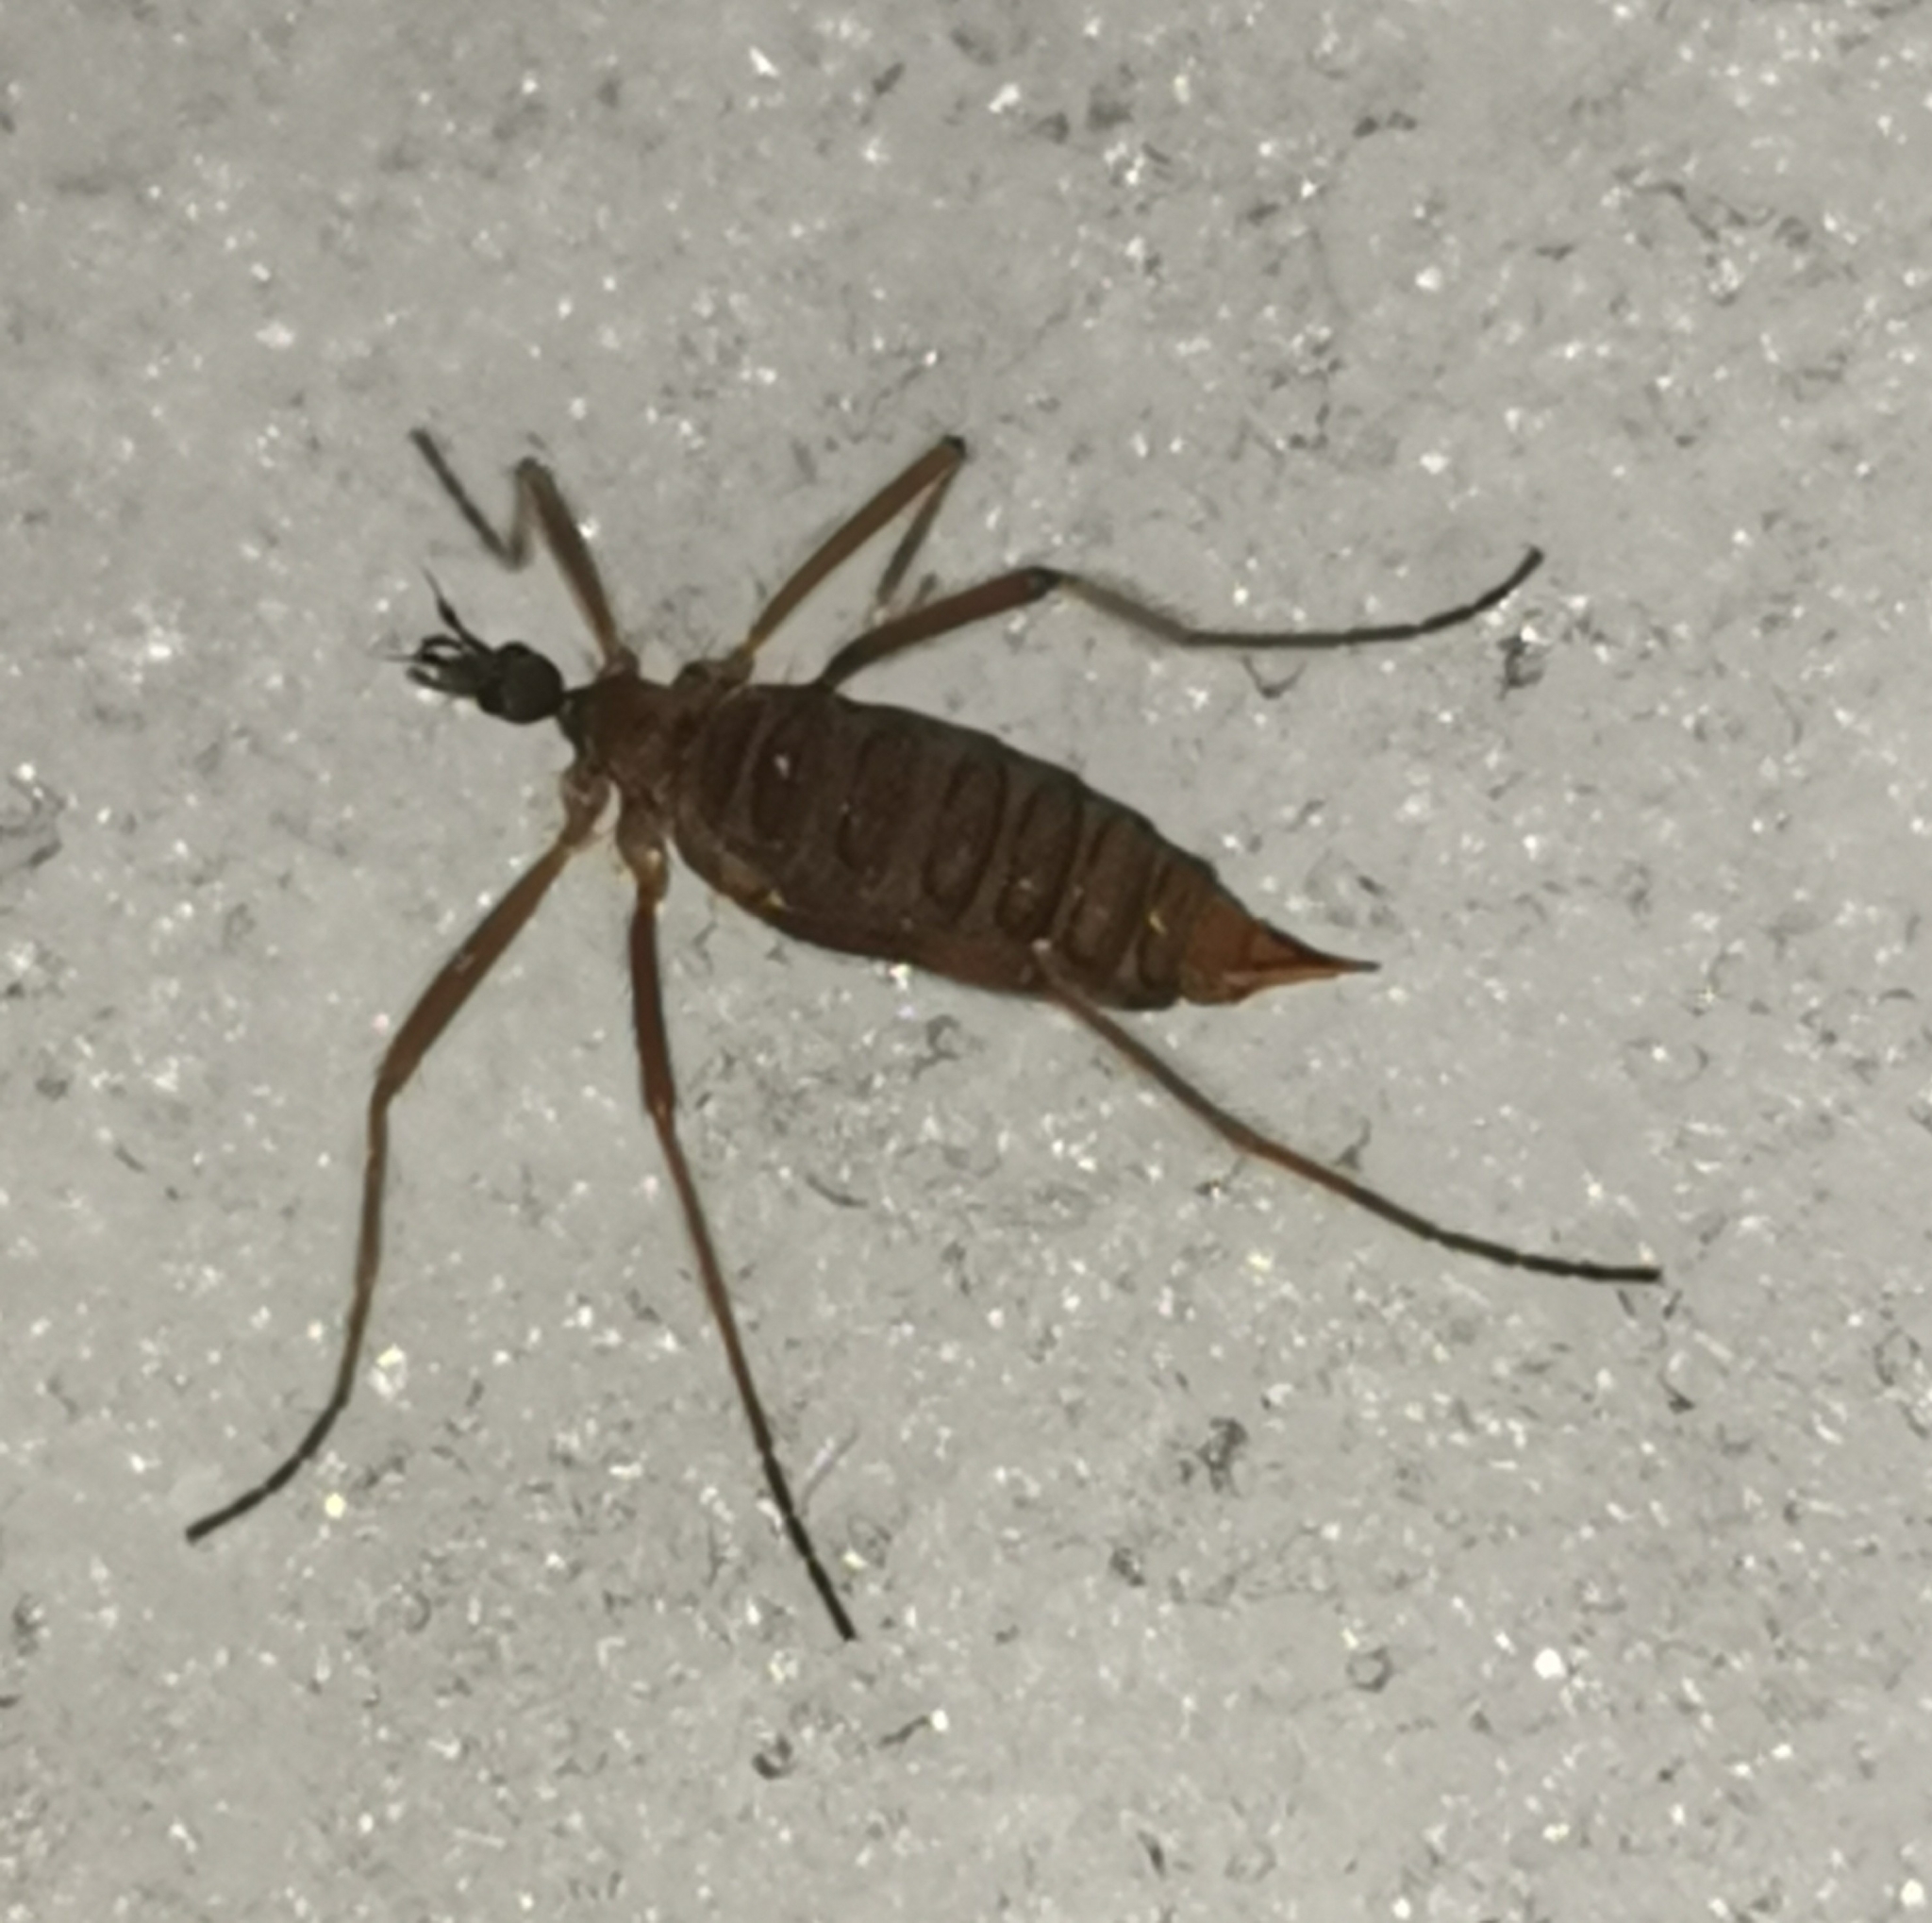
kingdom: Animalia
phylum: Arthropoda
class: Insecta
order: Diptera
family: Limoniidae
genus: Chionea
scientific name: Chionea lutescens
